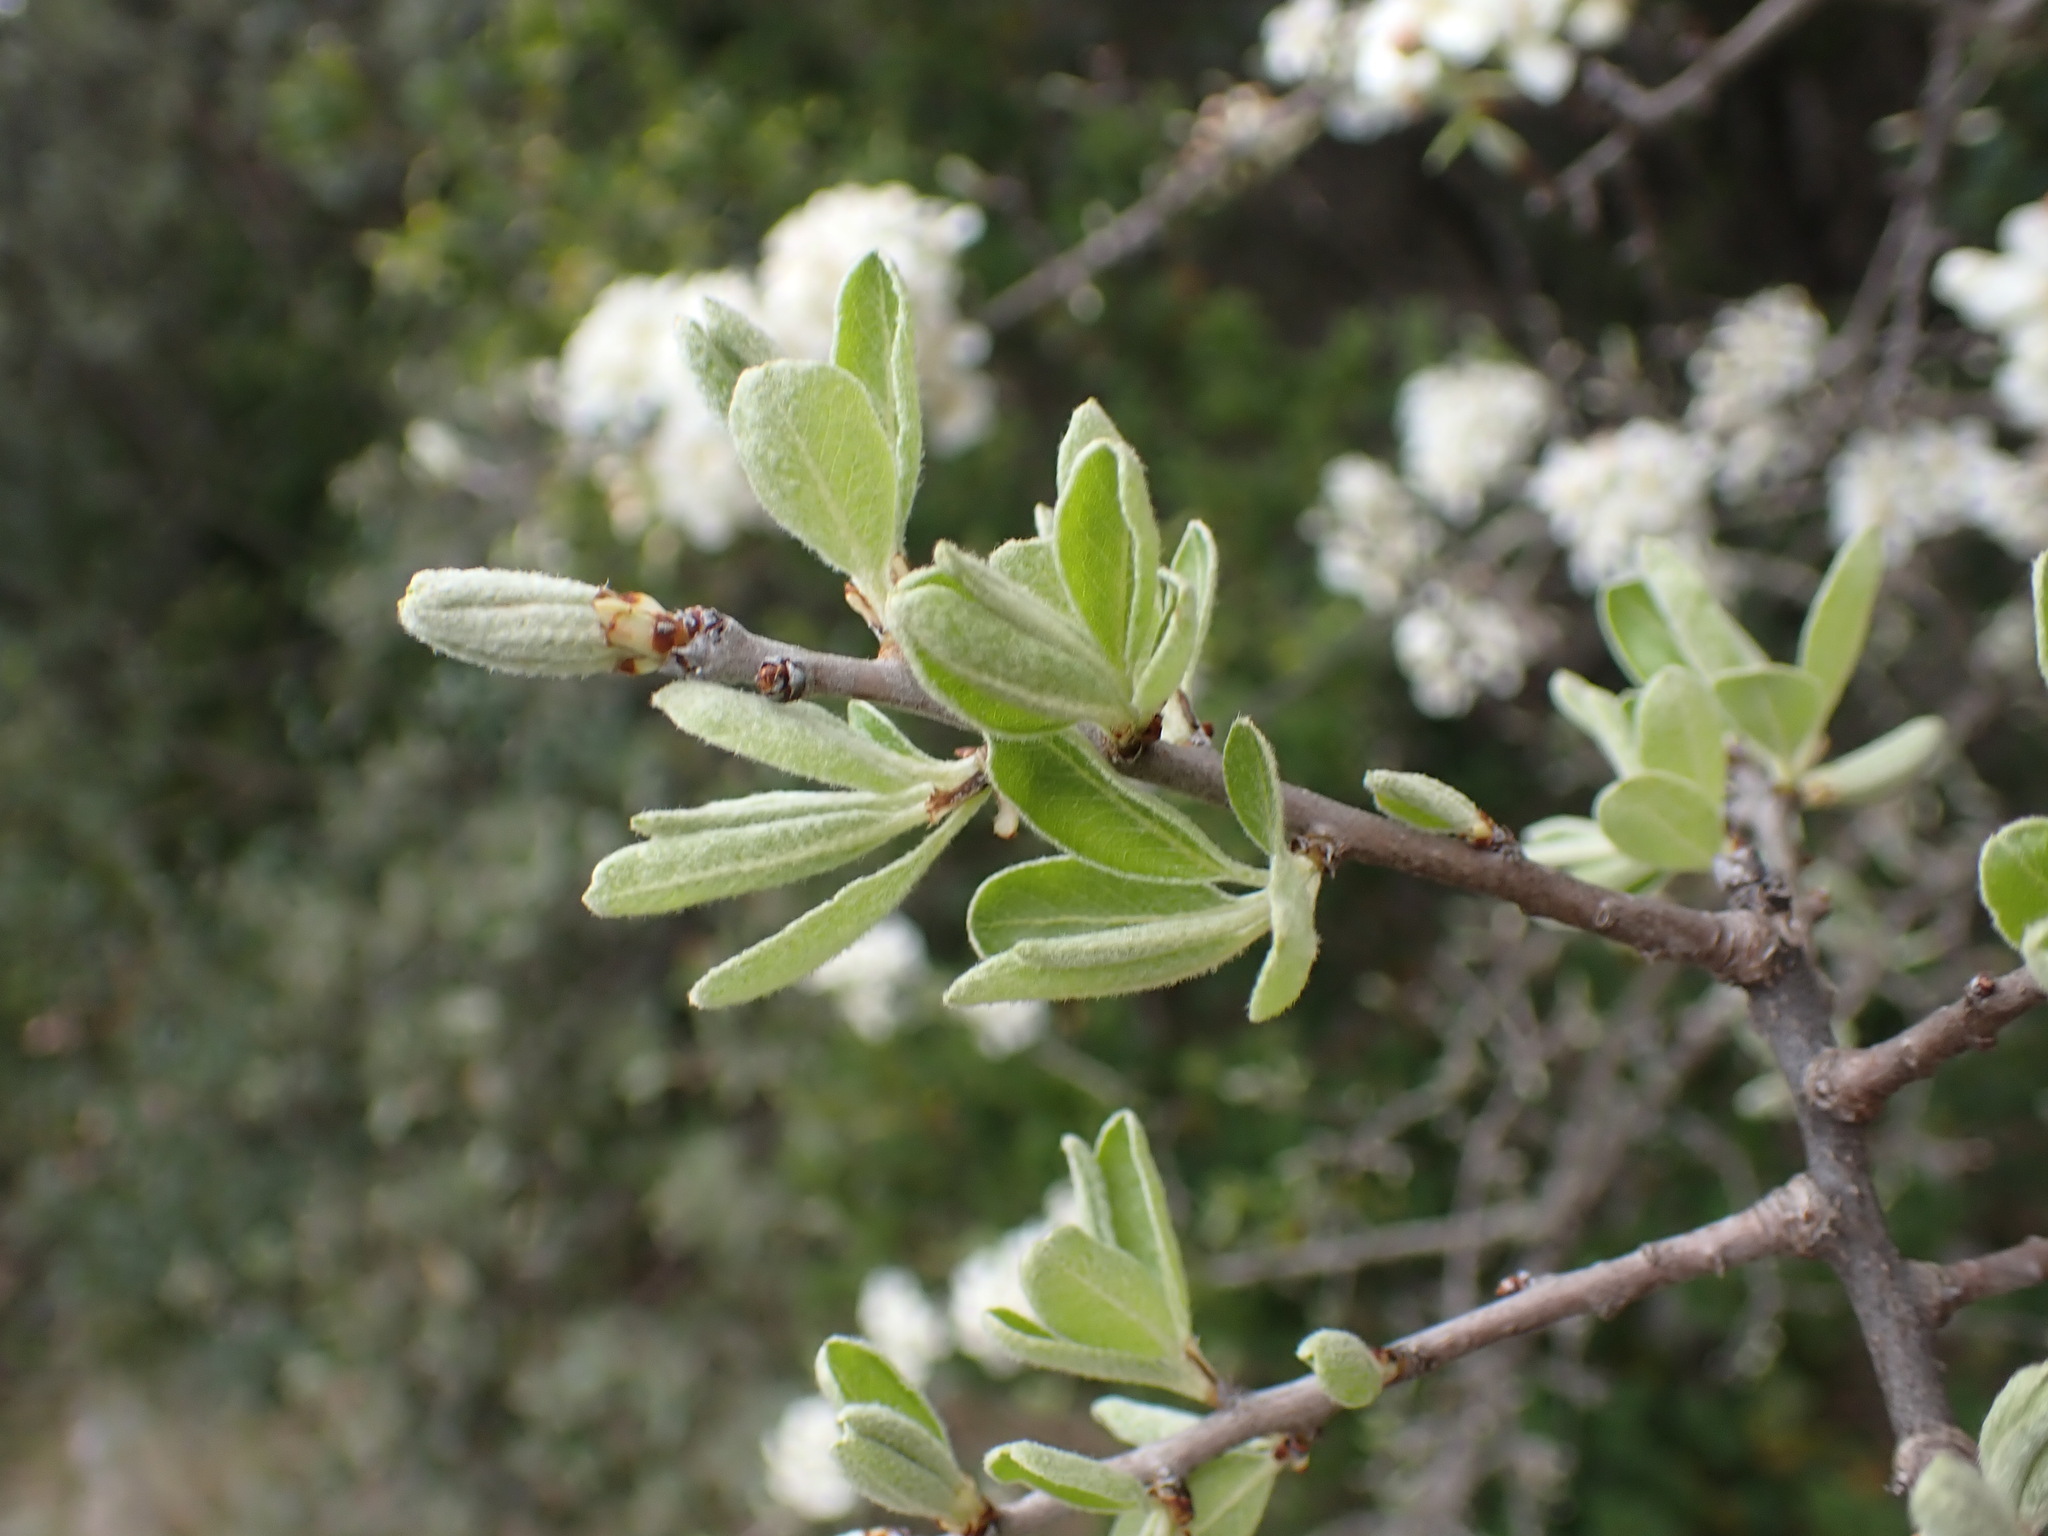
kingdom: Plantae
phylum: Tracheophyta
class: Magnoliopsida
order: Rosales
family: Rosaceae
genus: Pyrus
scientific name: Pyrus spinosa
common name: Almond-leaf pear
